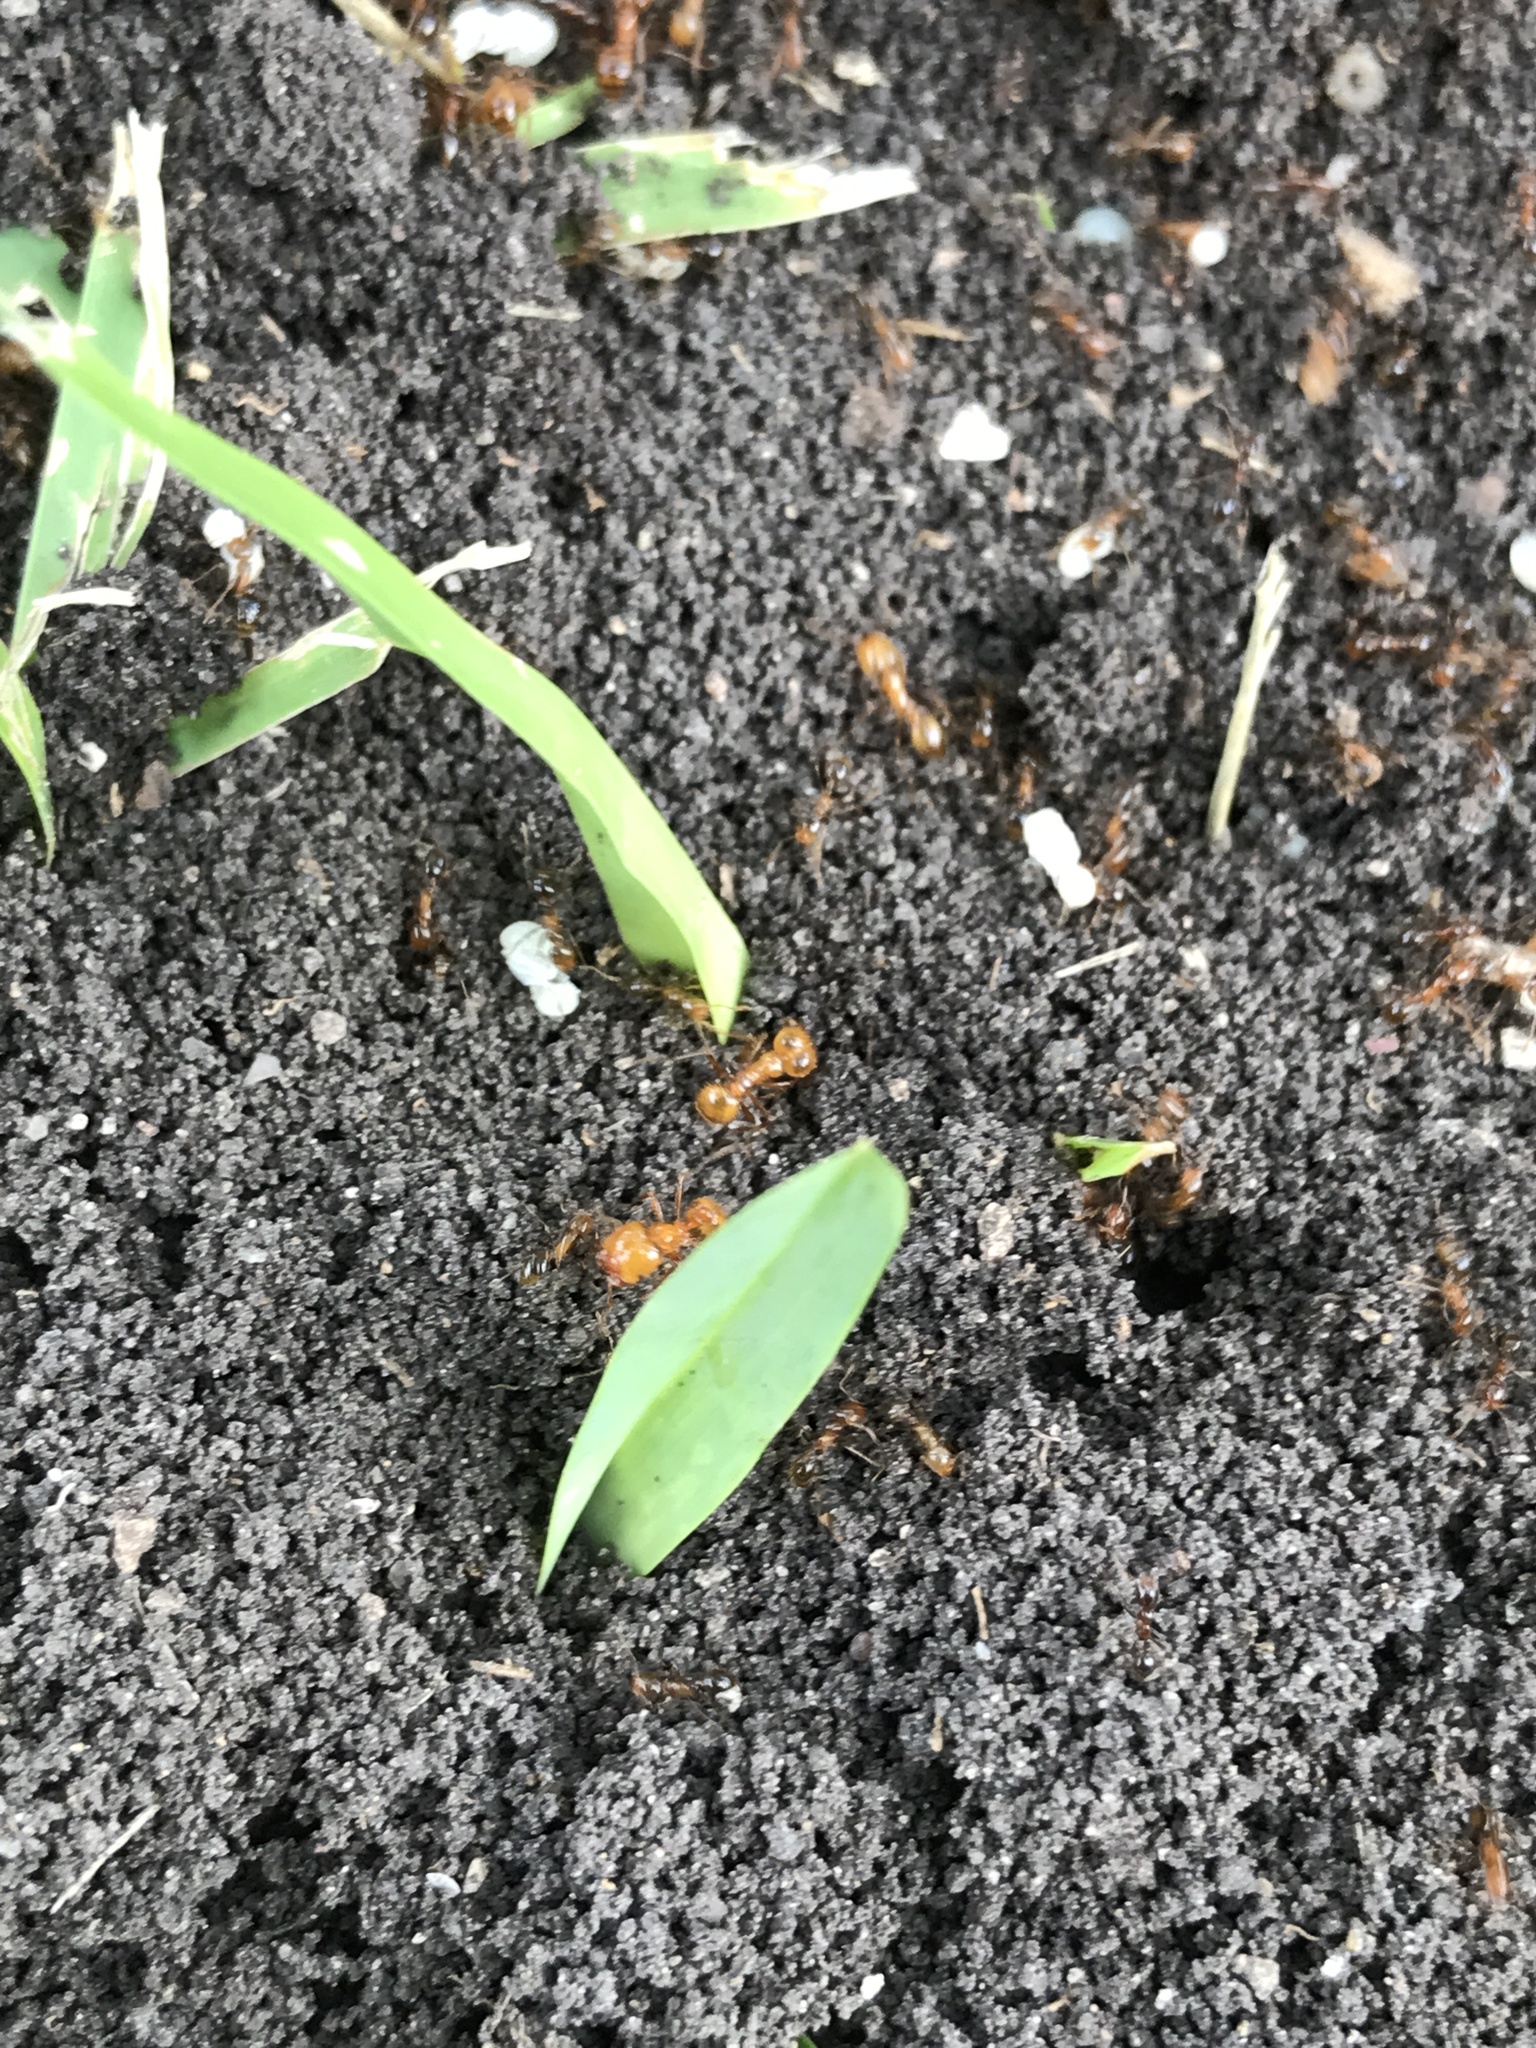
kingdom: Animalia
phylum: Arthropoda
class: Insecta
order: Hymenoptera
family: Formicidae
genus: Solenopsis
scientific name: Solenopsis geminata
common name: Tropical fire ant
